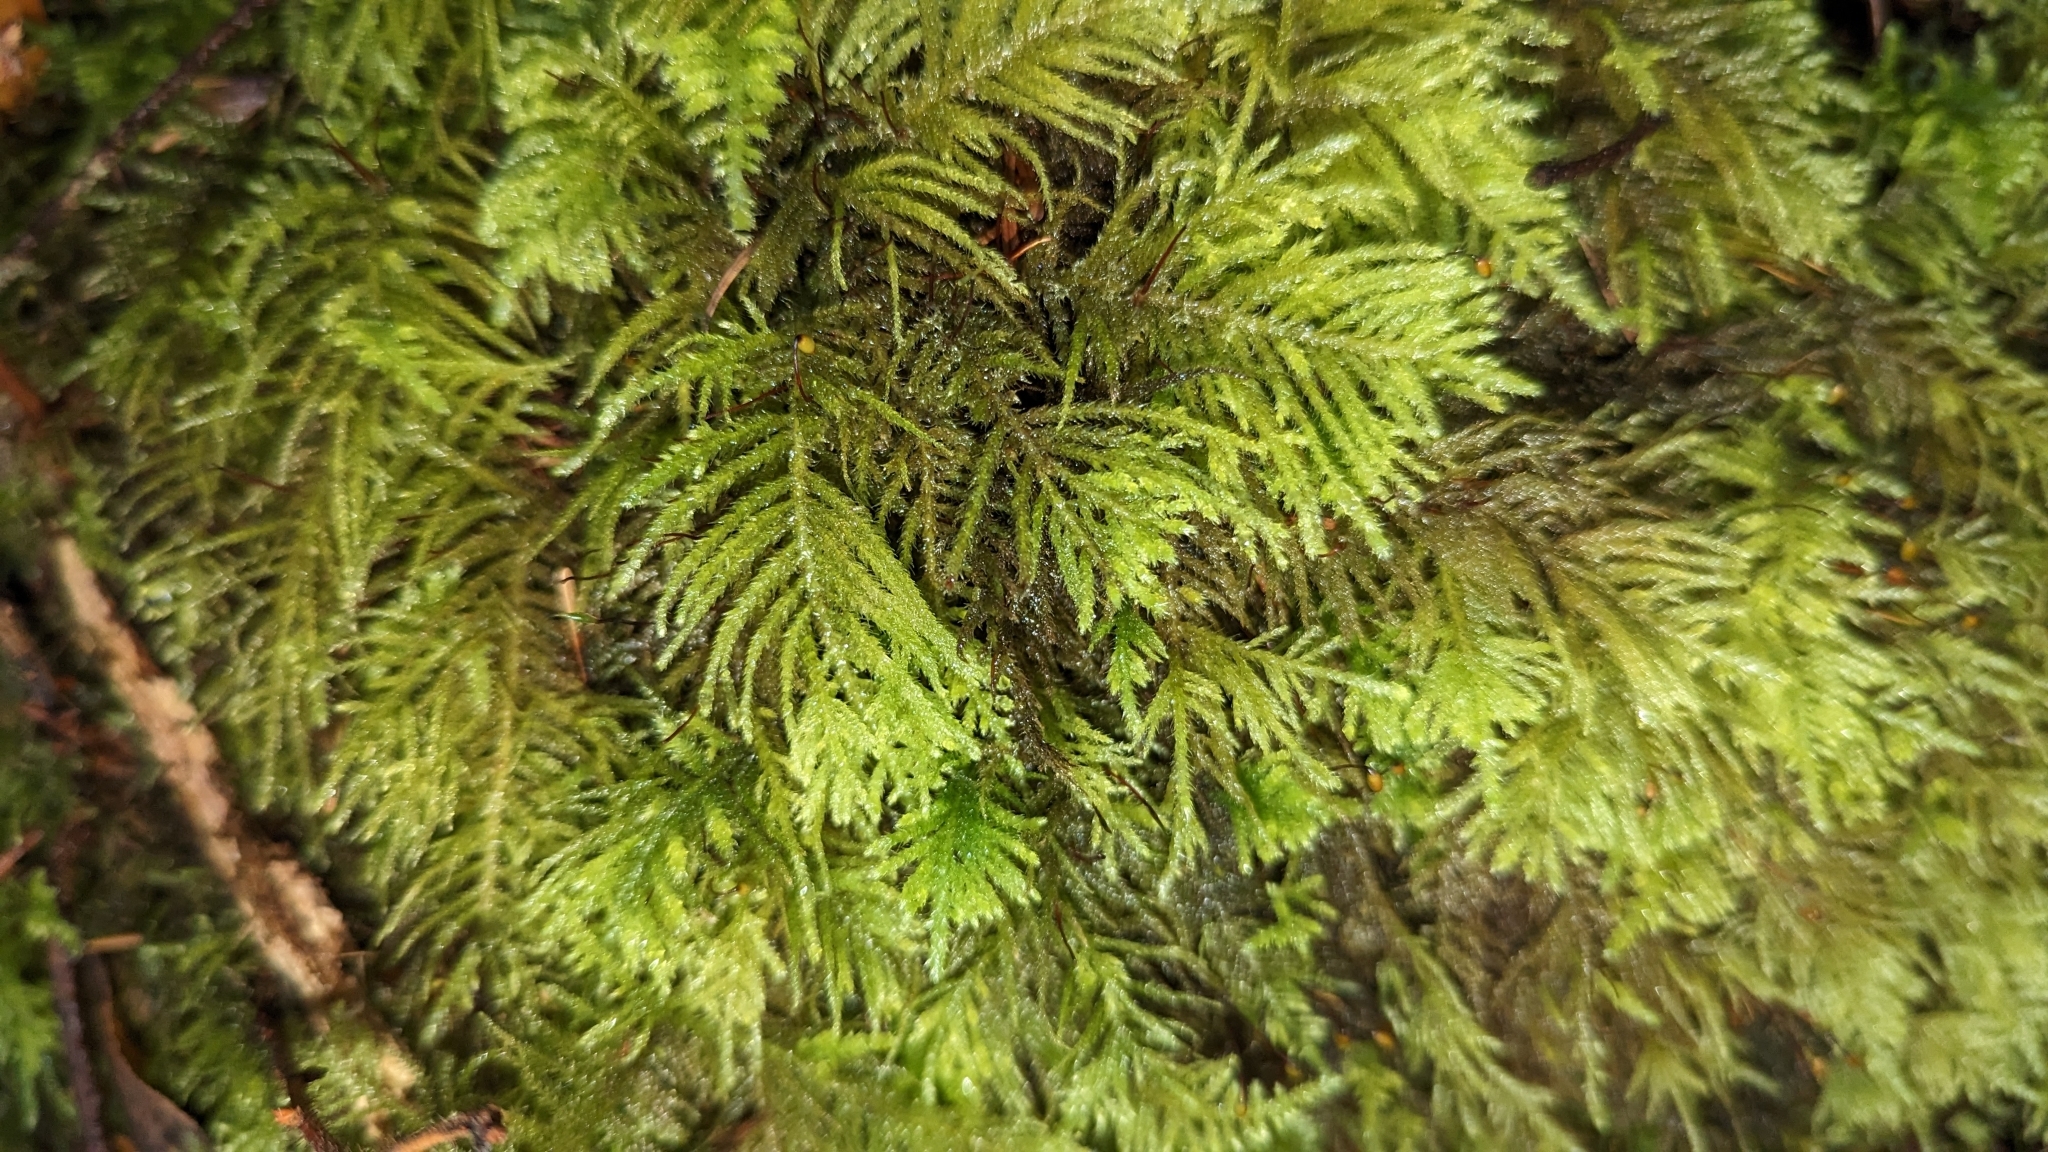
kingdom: Plantae
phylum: Bryophyta
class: Bryopsida
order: Hypnales
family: Brachytheciaceae
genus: Kindbergia
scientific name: Kindbergia oregana
